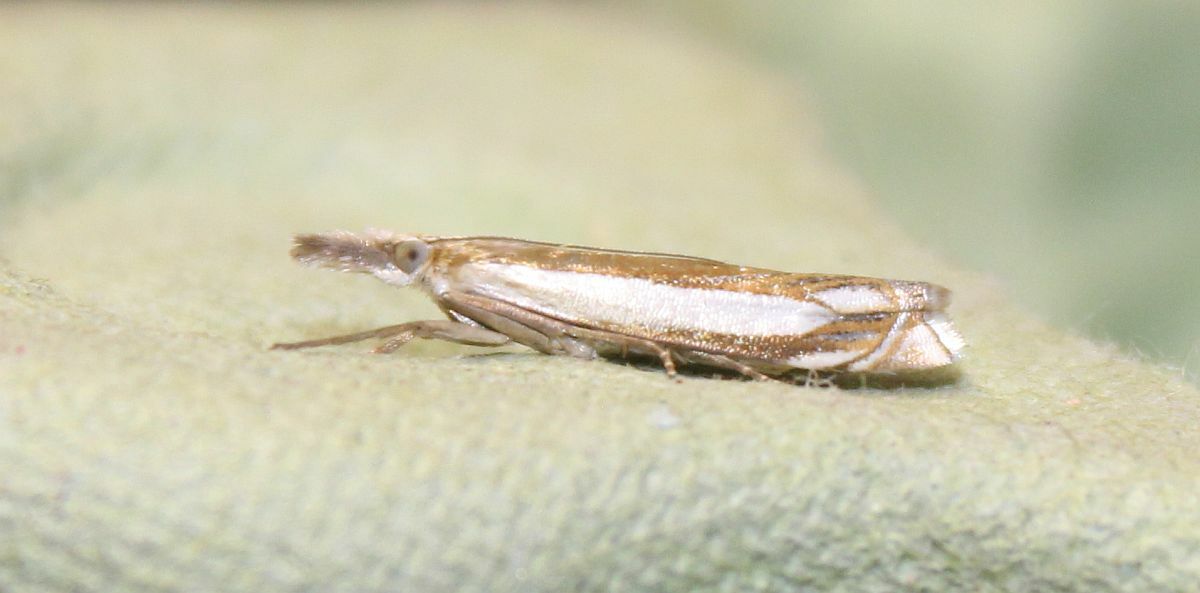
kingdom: Animalia
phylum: Arthropoda
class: Insecta
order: Lepidoptera
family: Crambidae
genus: Crambus
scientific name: Crambus pascuella
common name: Inlaid grass-veneer
